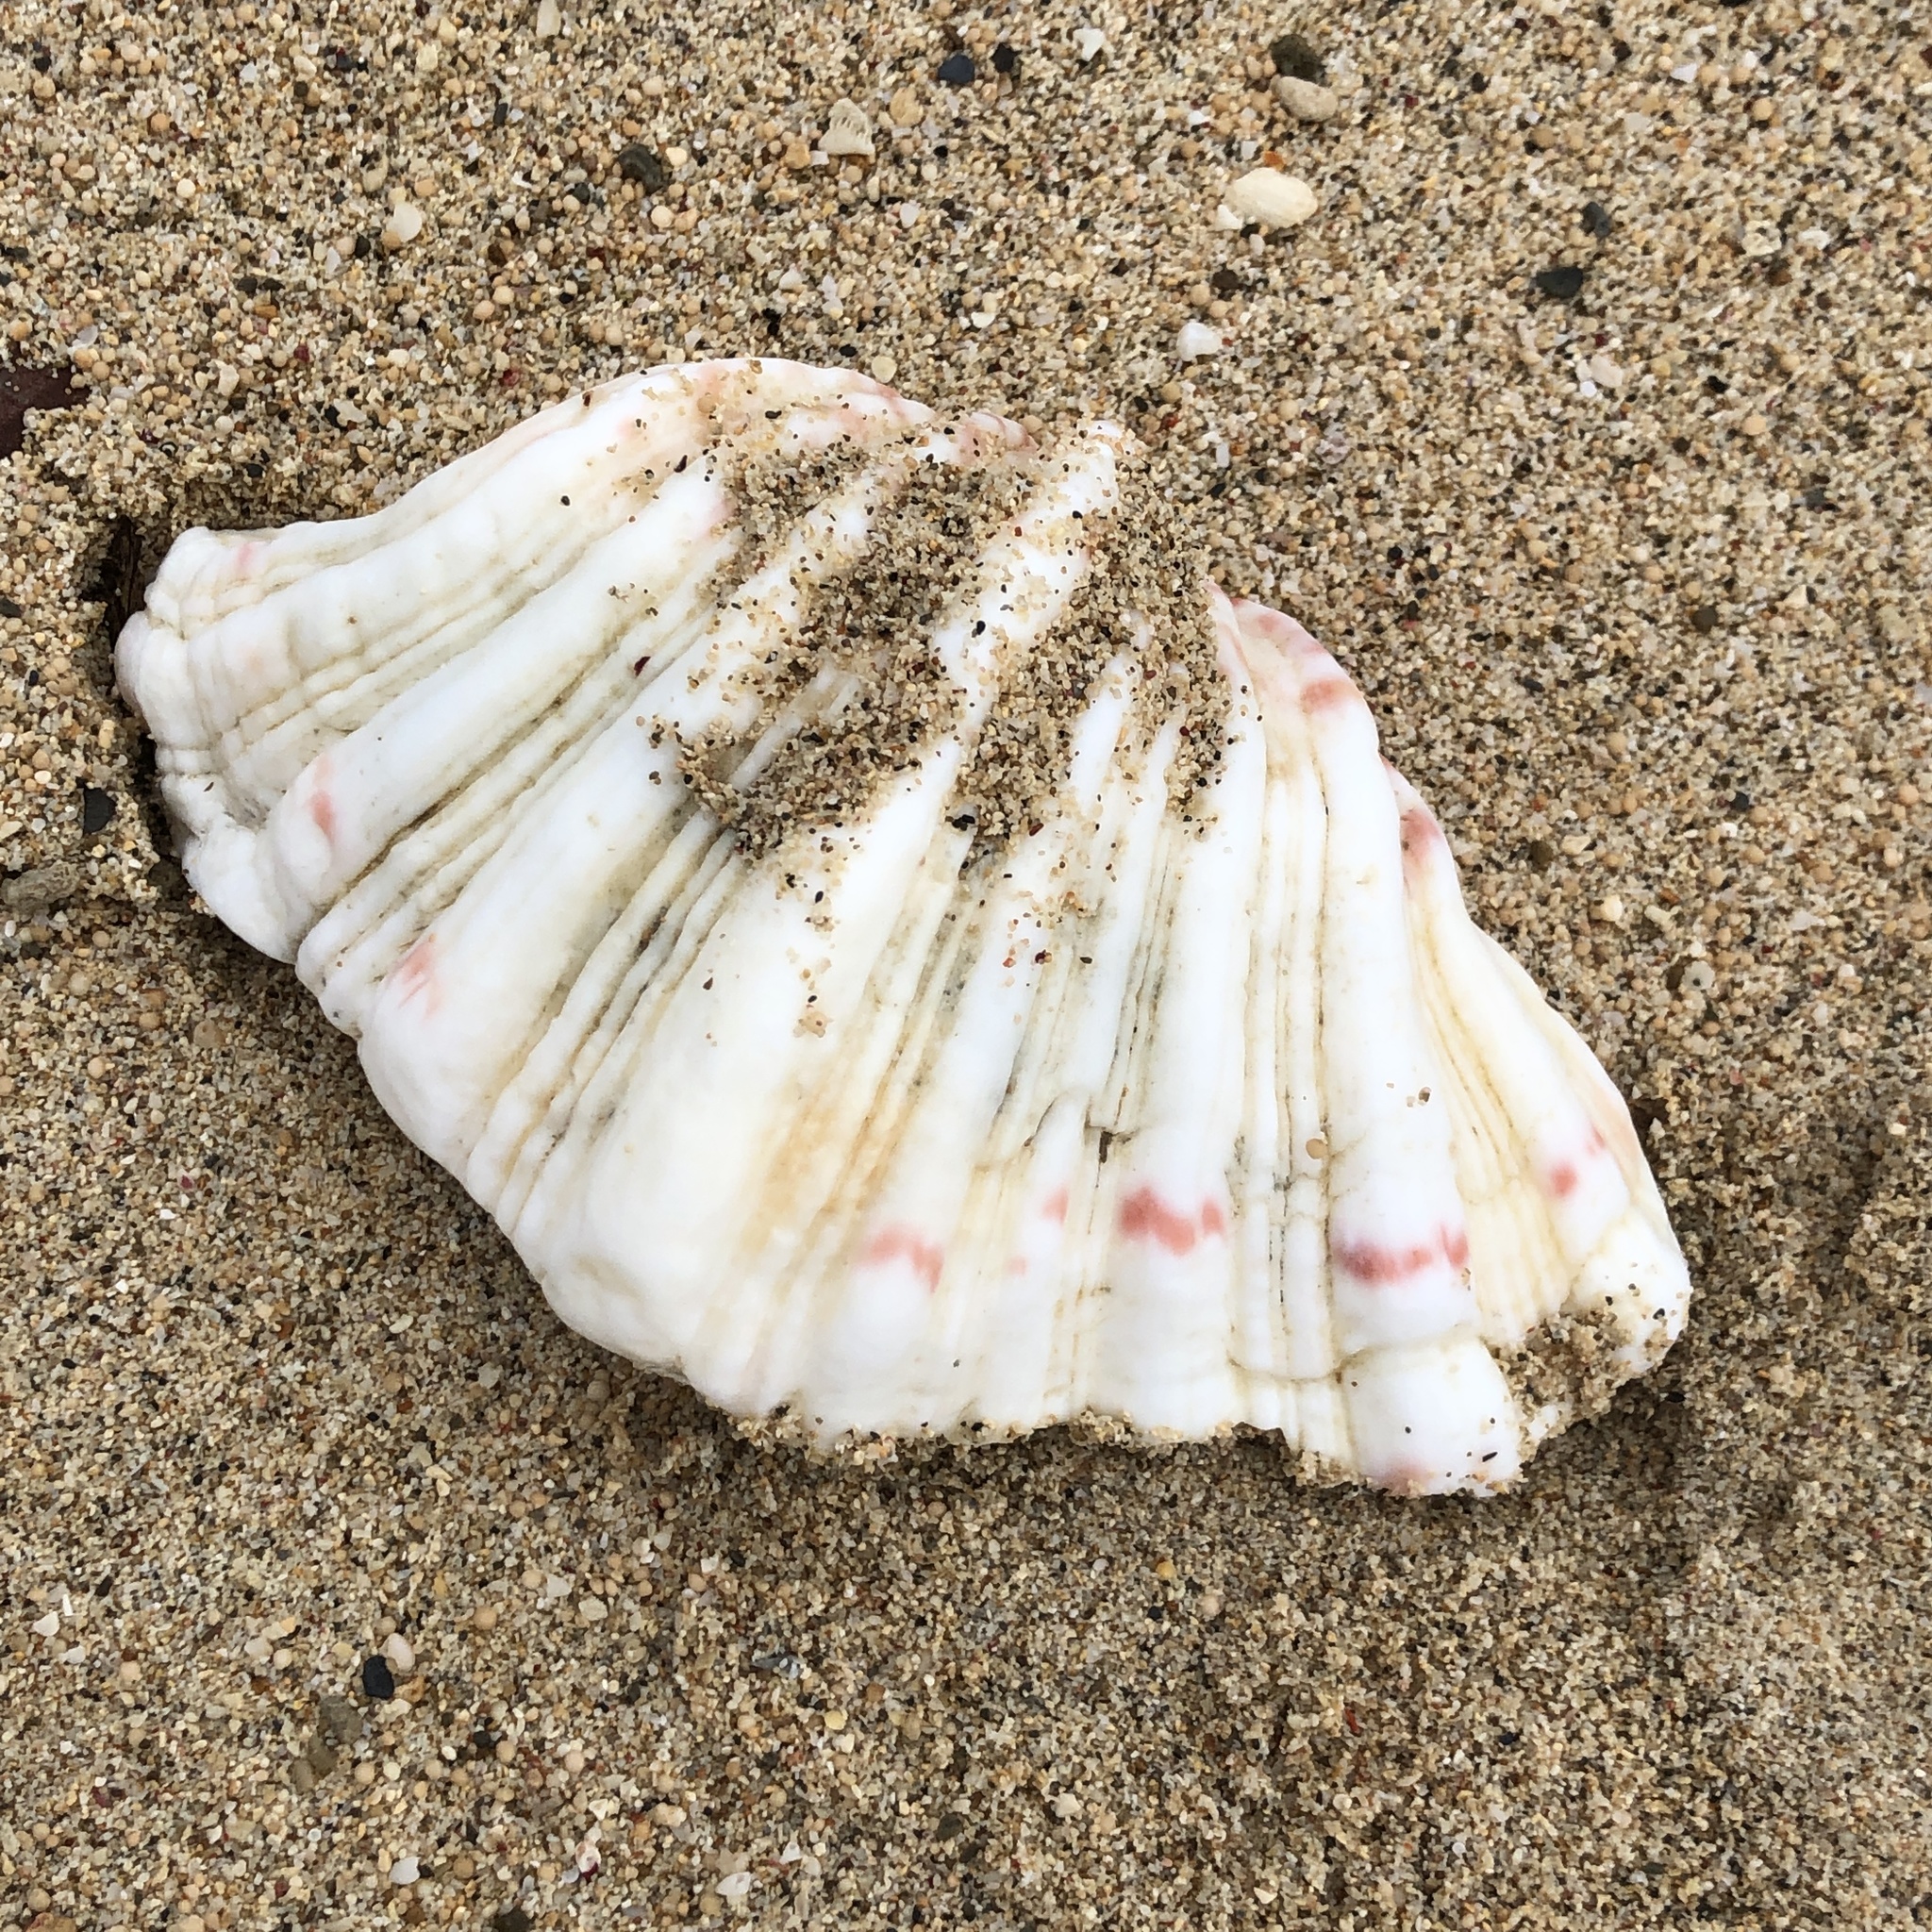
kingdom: Animalia
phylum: Mollusca
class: Bivalvia
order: Cardiida
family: Cardiidae
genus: Hippopus
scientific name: Hippopus hippopus
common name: Bear paw clam
